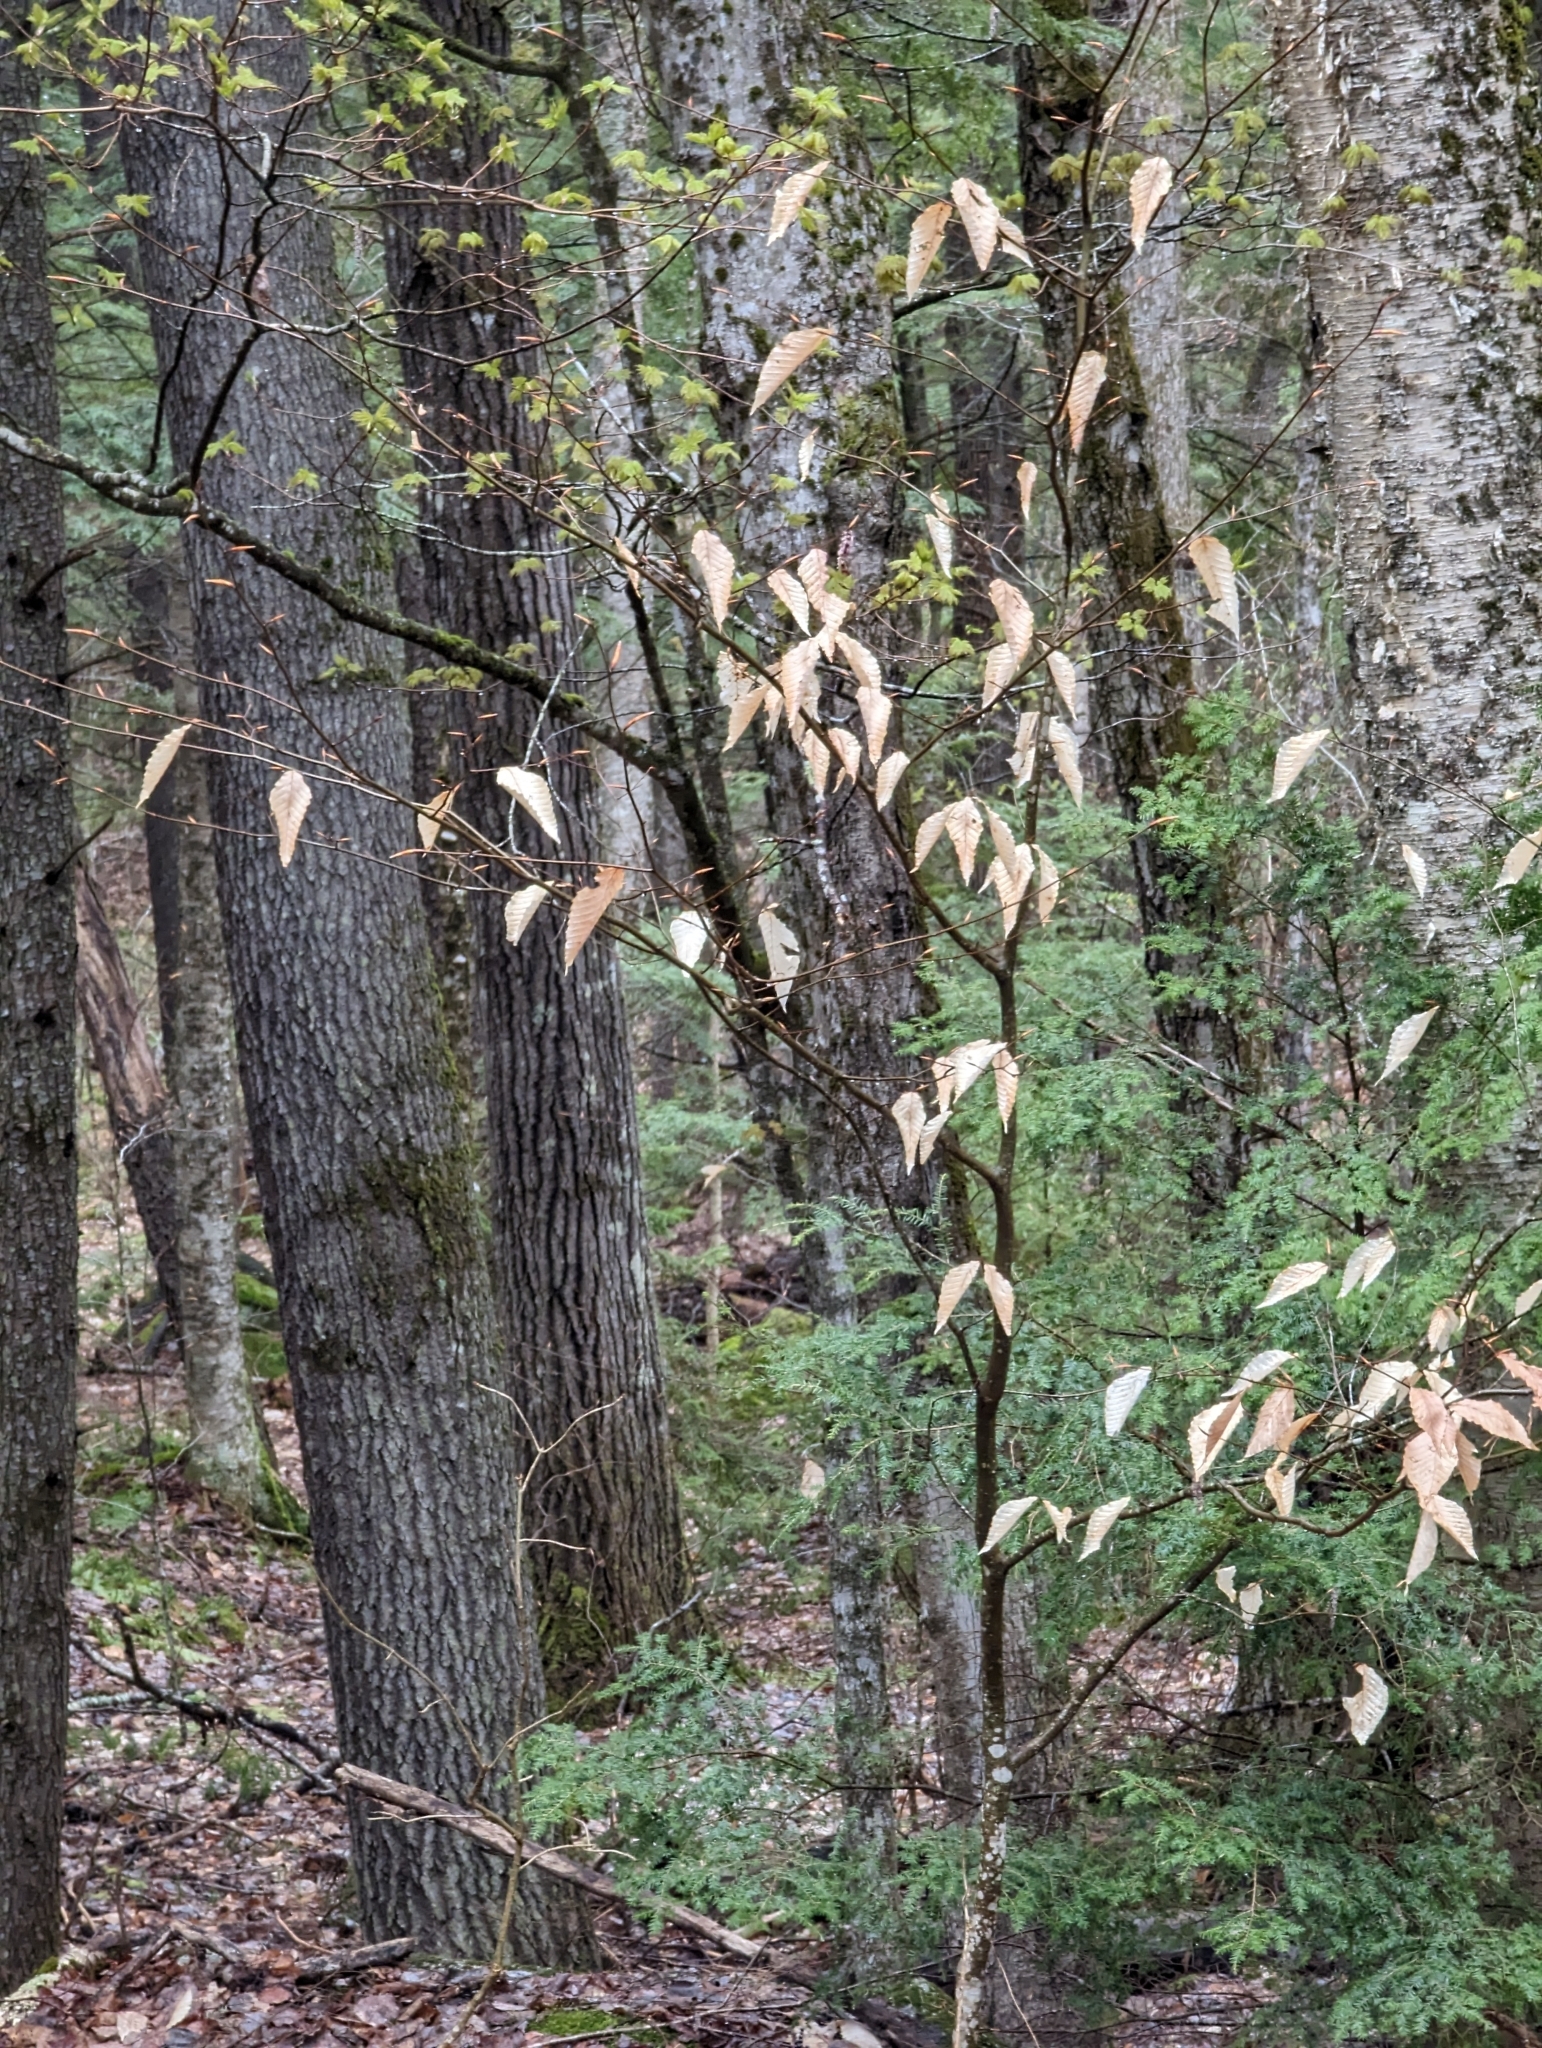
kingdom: Plantae
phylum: Tracheophyta
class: Magnoliopsida
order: Fagales
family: Fagaceae
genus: Fagus
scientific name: Fagus grandifolia
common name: American beech
